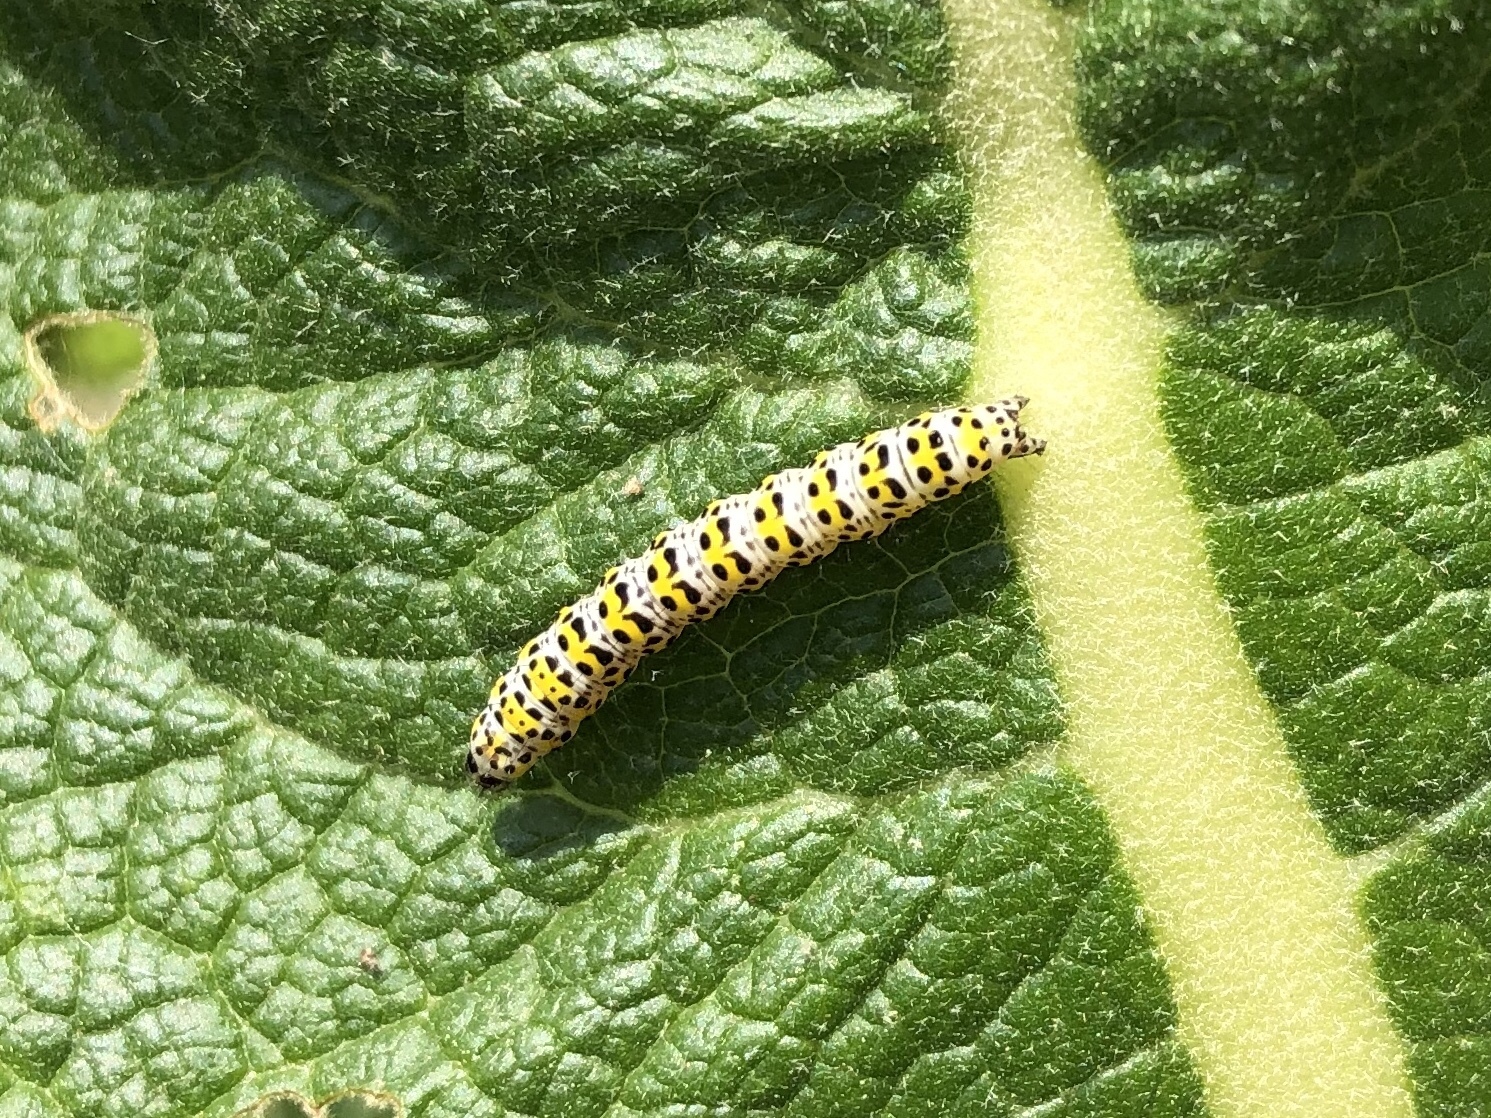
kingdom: Animalia
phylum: Arthropoda
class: Insecta
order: Lepidoptera
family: Noctuidae
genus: Cucullia
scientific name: Cucullia verbasci
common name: Mullein
